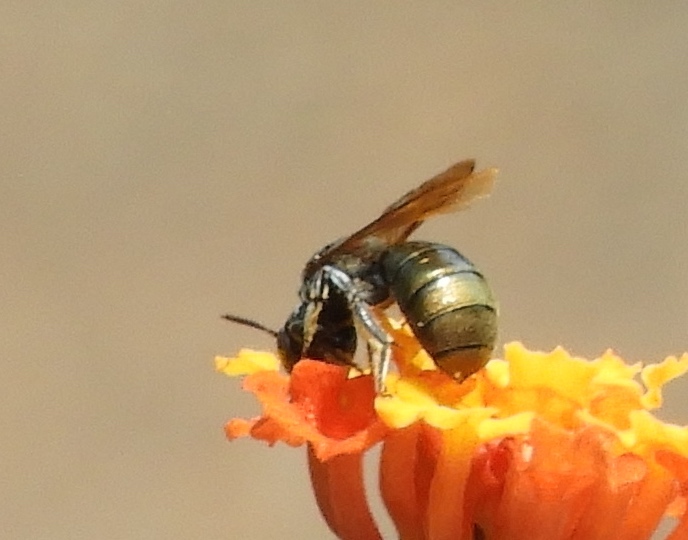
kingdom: Animalia
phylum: Arthropoda
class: Insecta
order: Hymenoptera
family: Apidae
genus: Ceratina
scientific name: Ceratina
